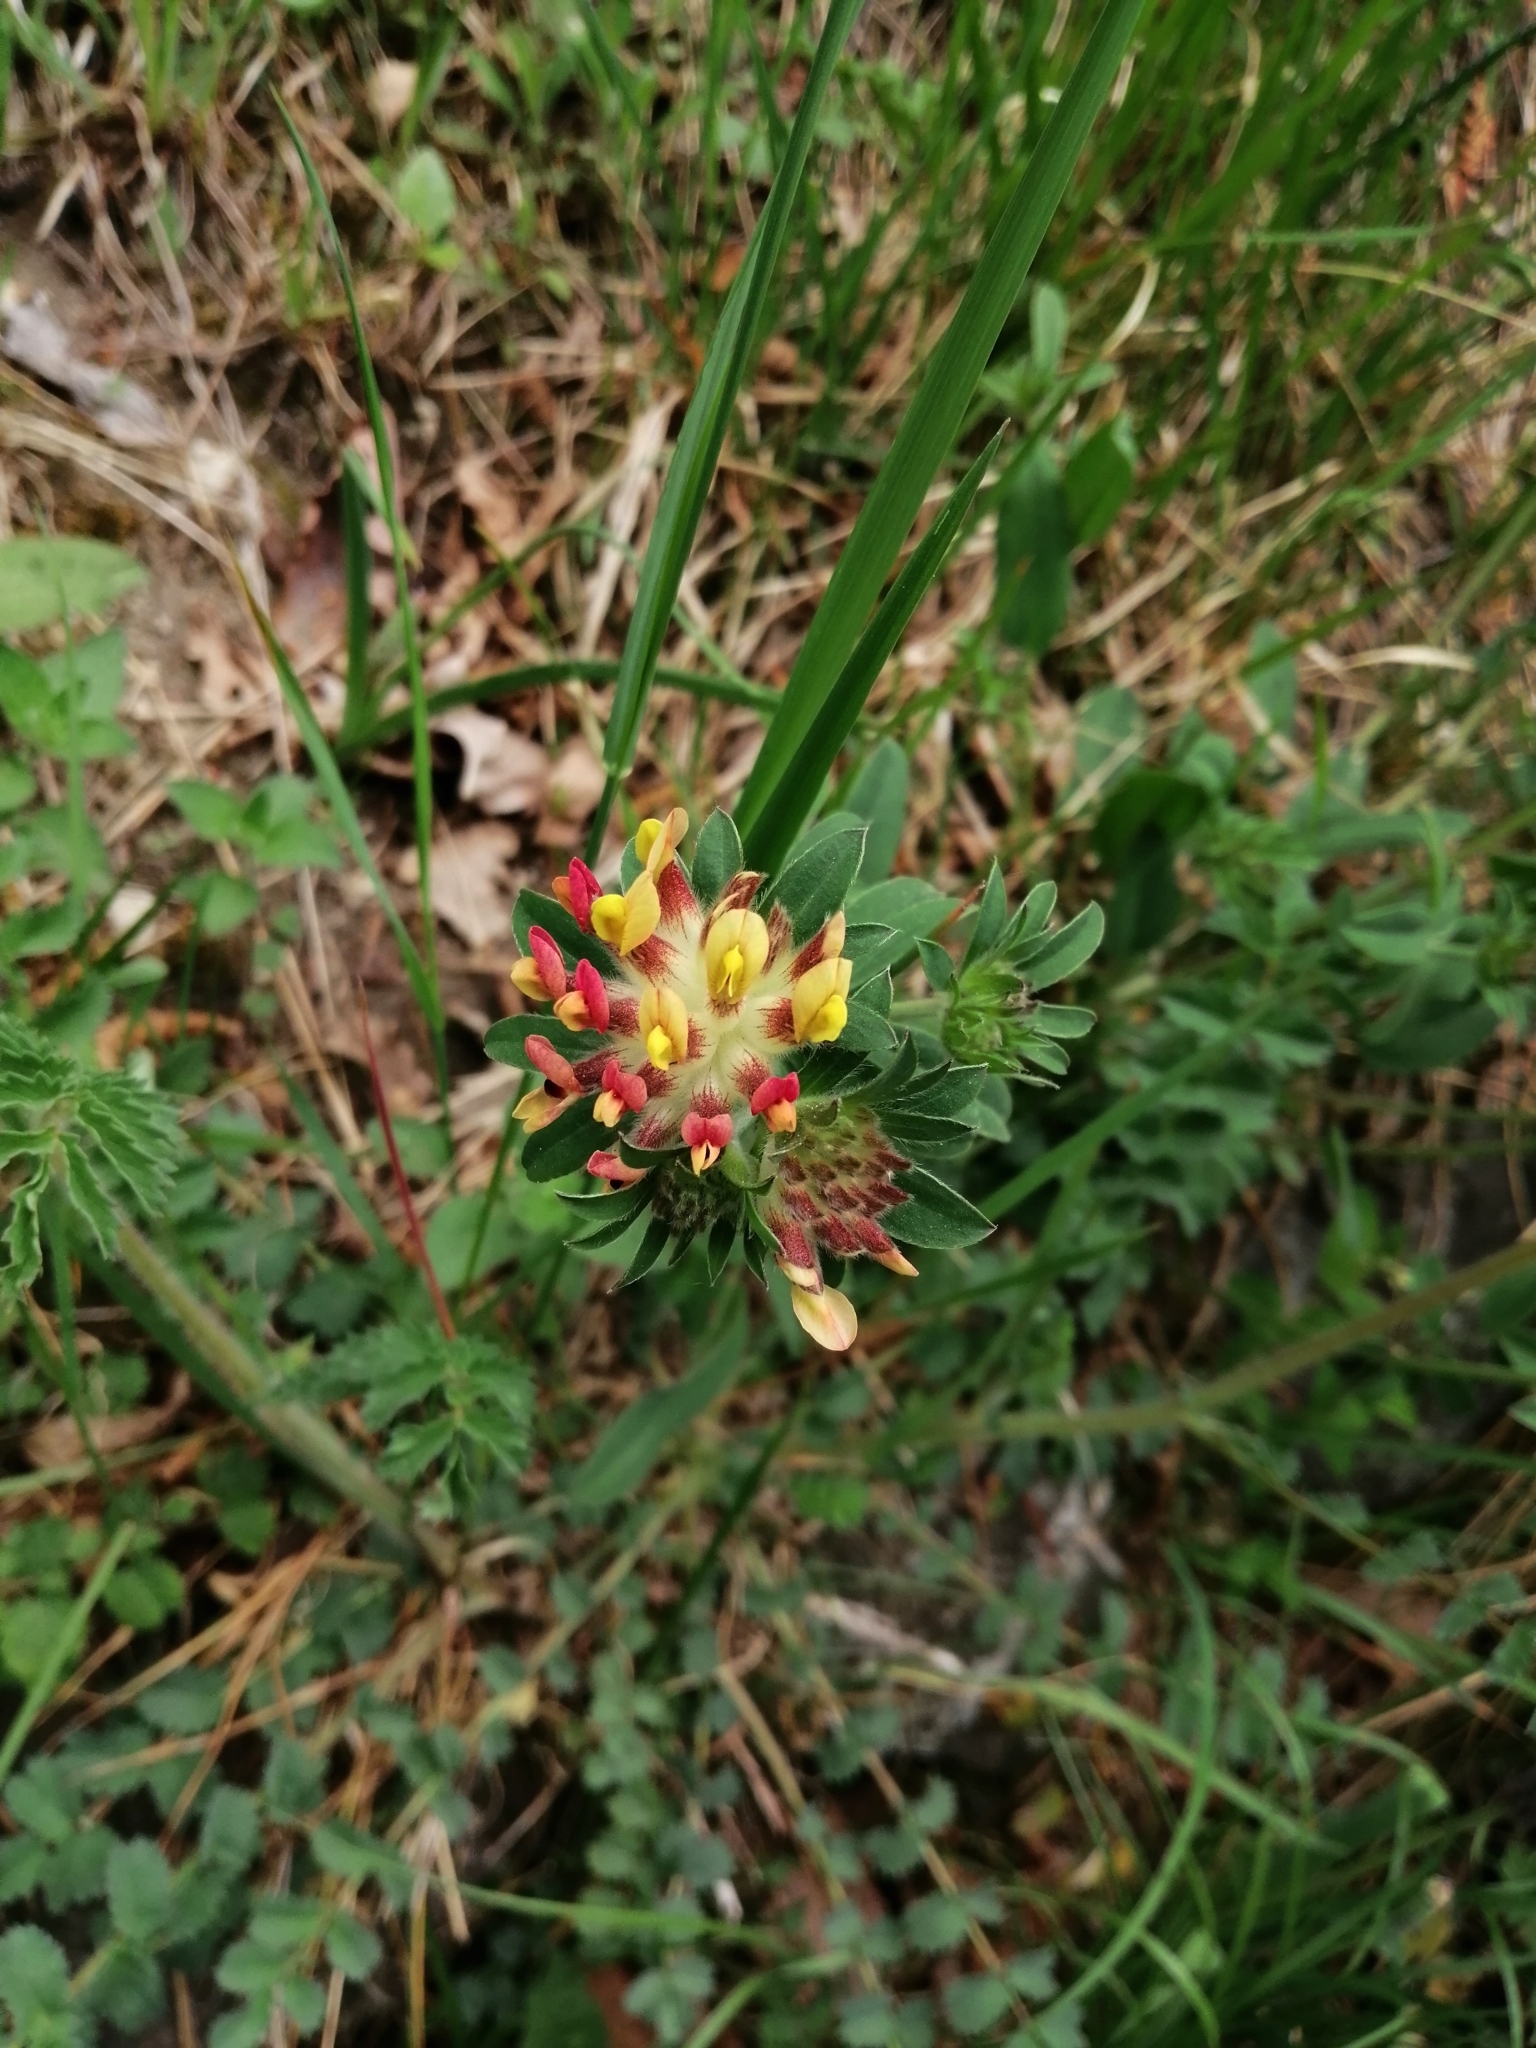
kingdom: Plantae
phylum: Tracheophyta
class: Magnoliopsida
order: Fabales
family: Fabaceae
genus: Anthyllis
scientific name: Anthyllis vulneraria
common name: Kidney vetch
